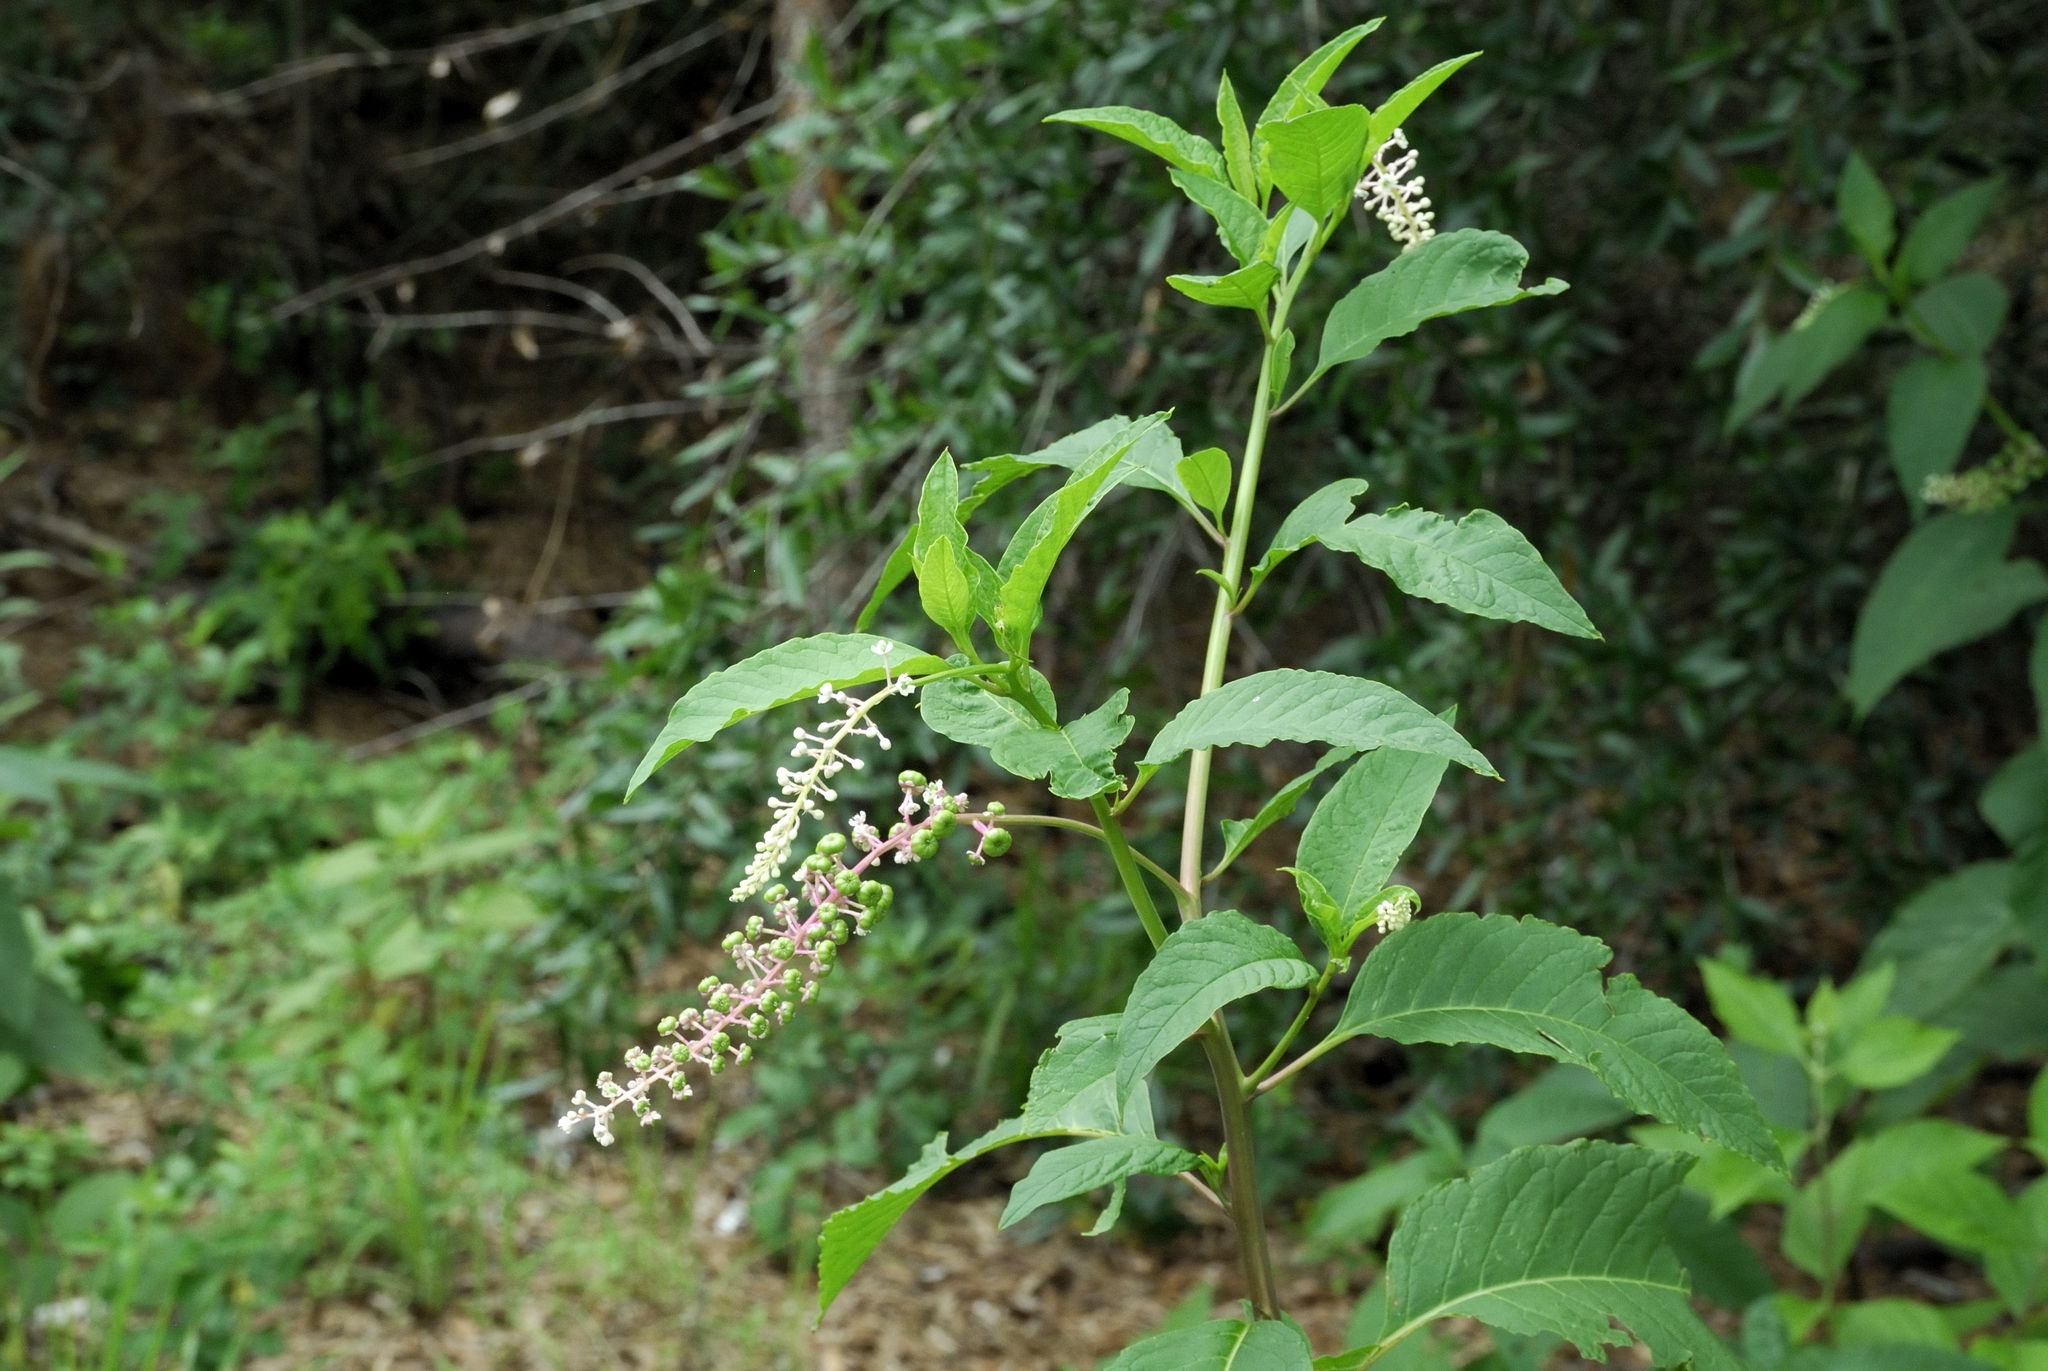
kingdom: Plantae
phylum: Tracheophyta
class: Magnoliopsida
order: Caryophyllales
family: Phytolaccaceae
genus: Phytolacca
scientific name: Phytolacca americana
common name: American pokeweed
